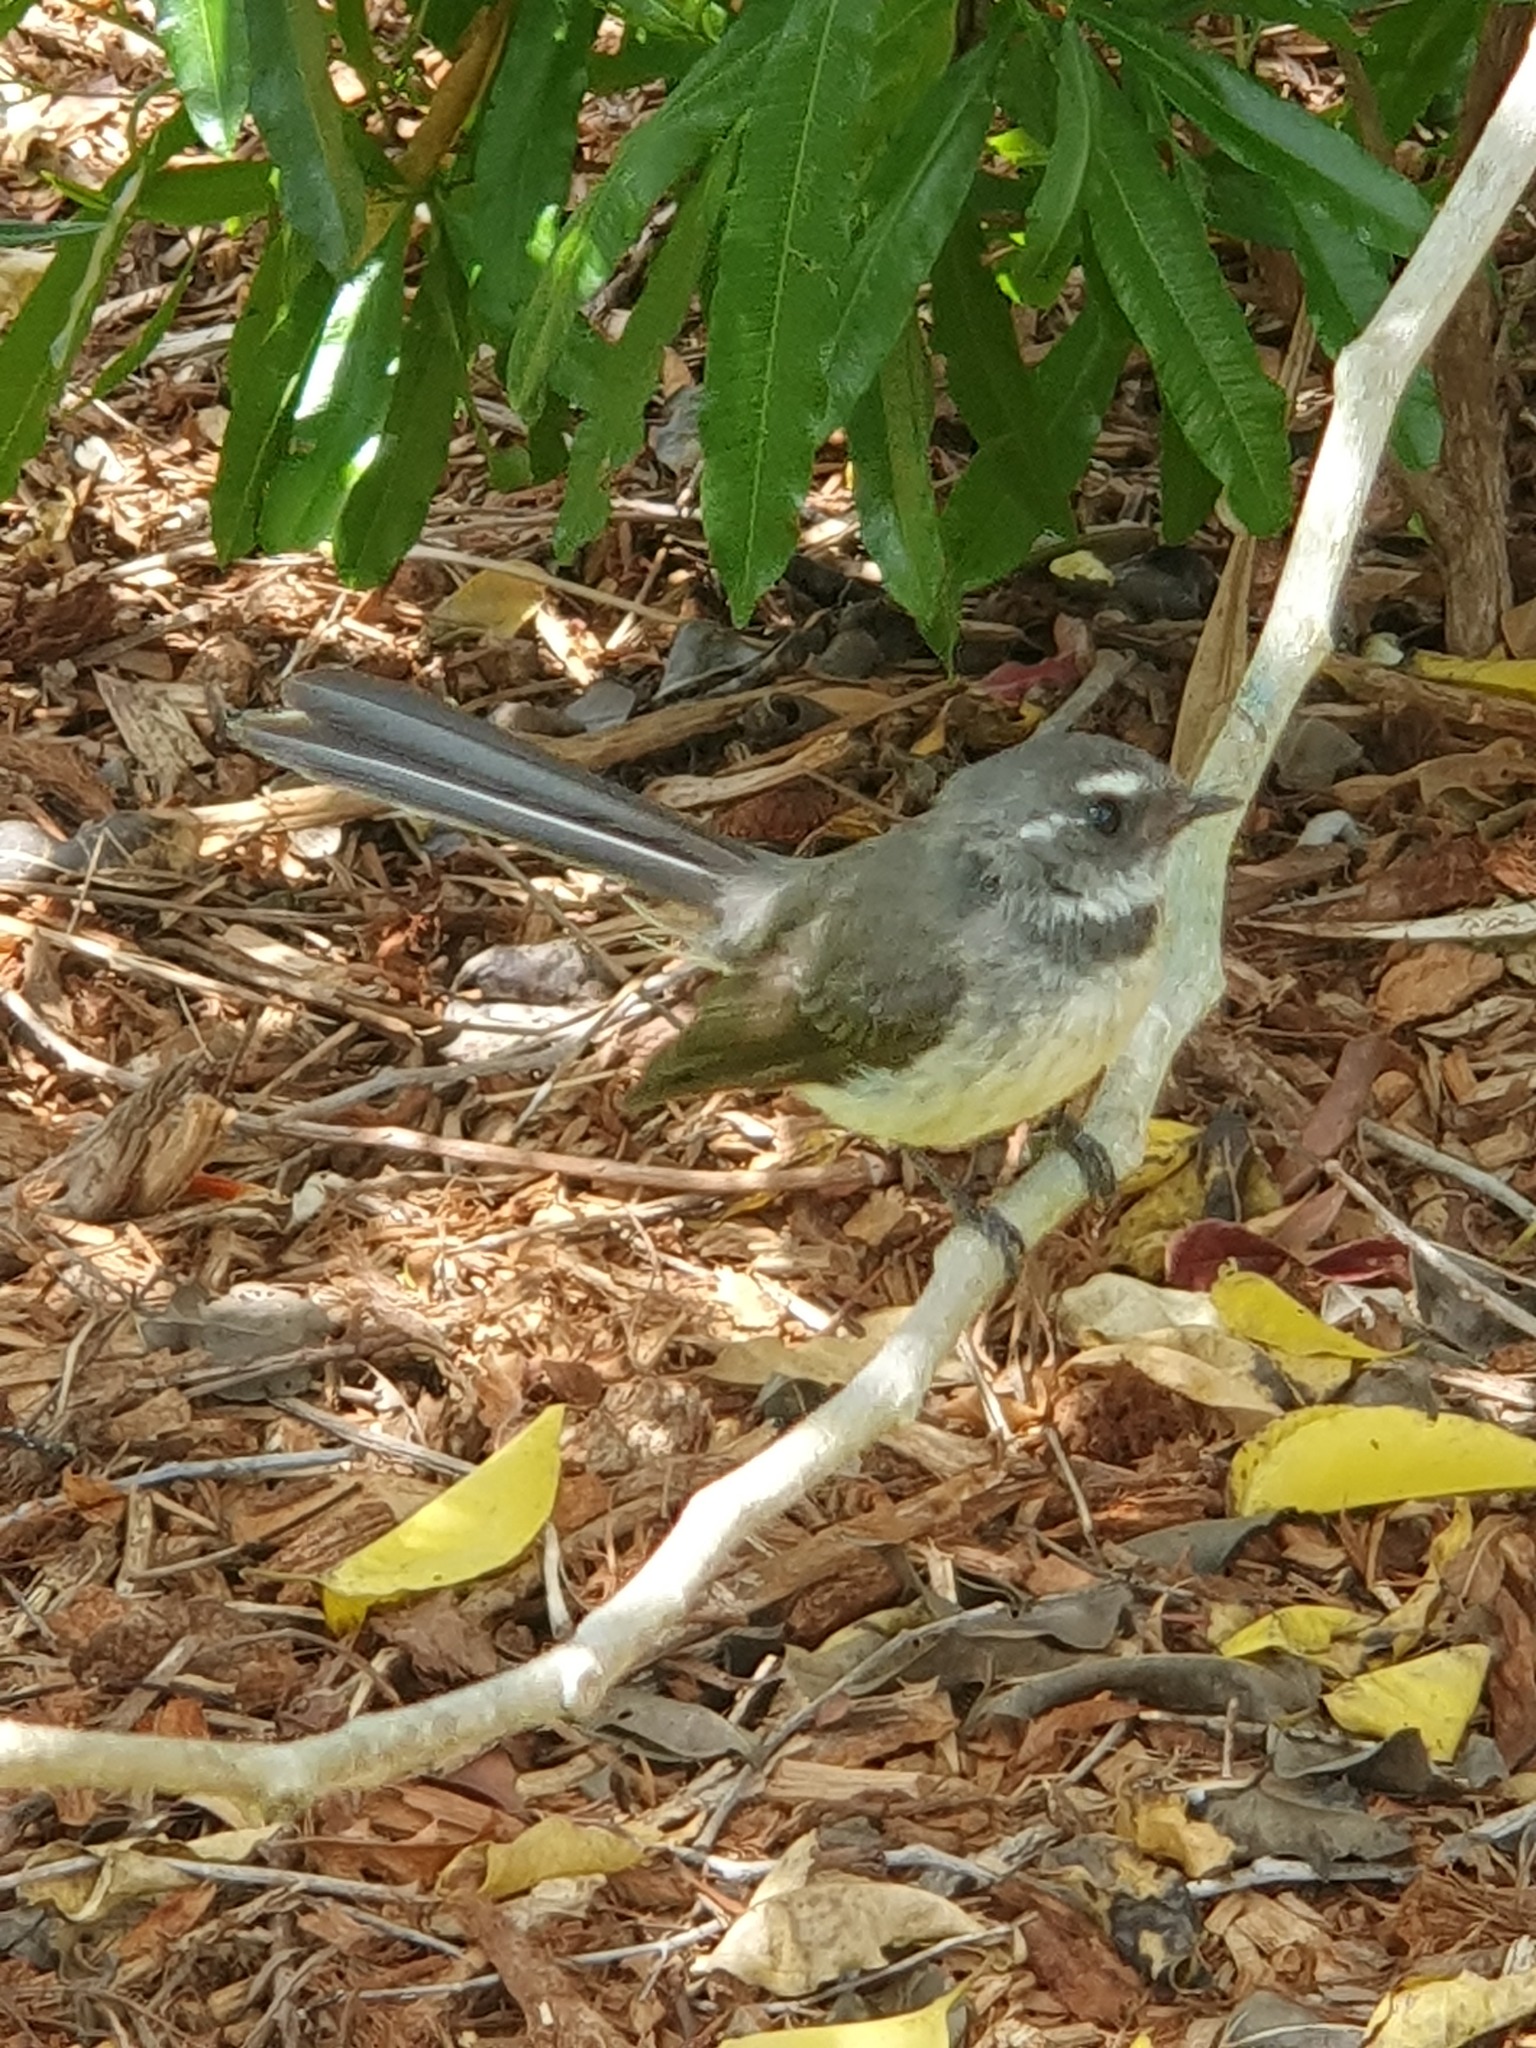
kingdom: Animalia
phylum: Chordata
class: Aves
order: Passeriformes
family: Rhipiduridae
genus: Rhipidura
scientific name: Rhipidura albiscapa
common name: Grey fantail
